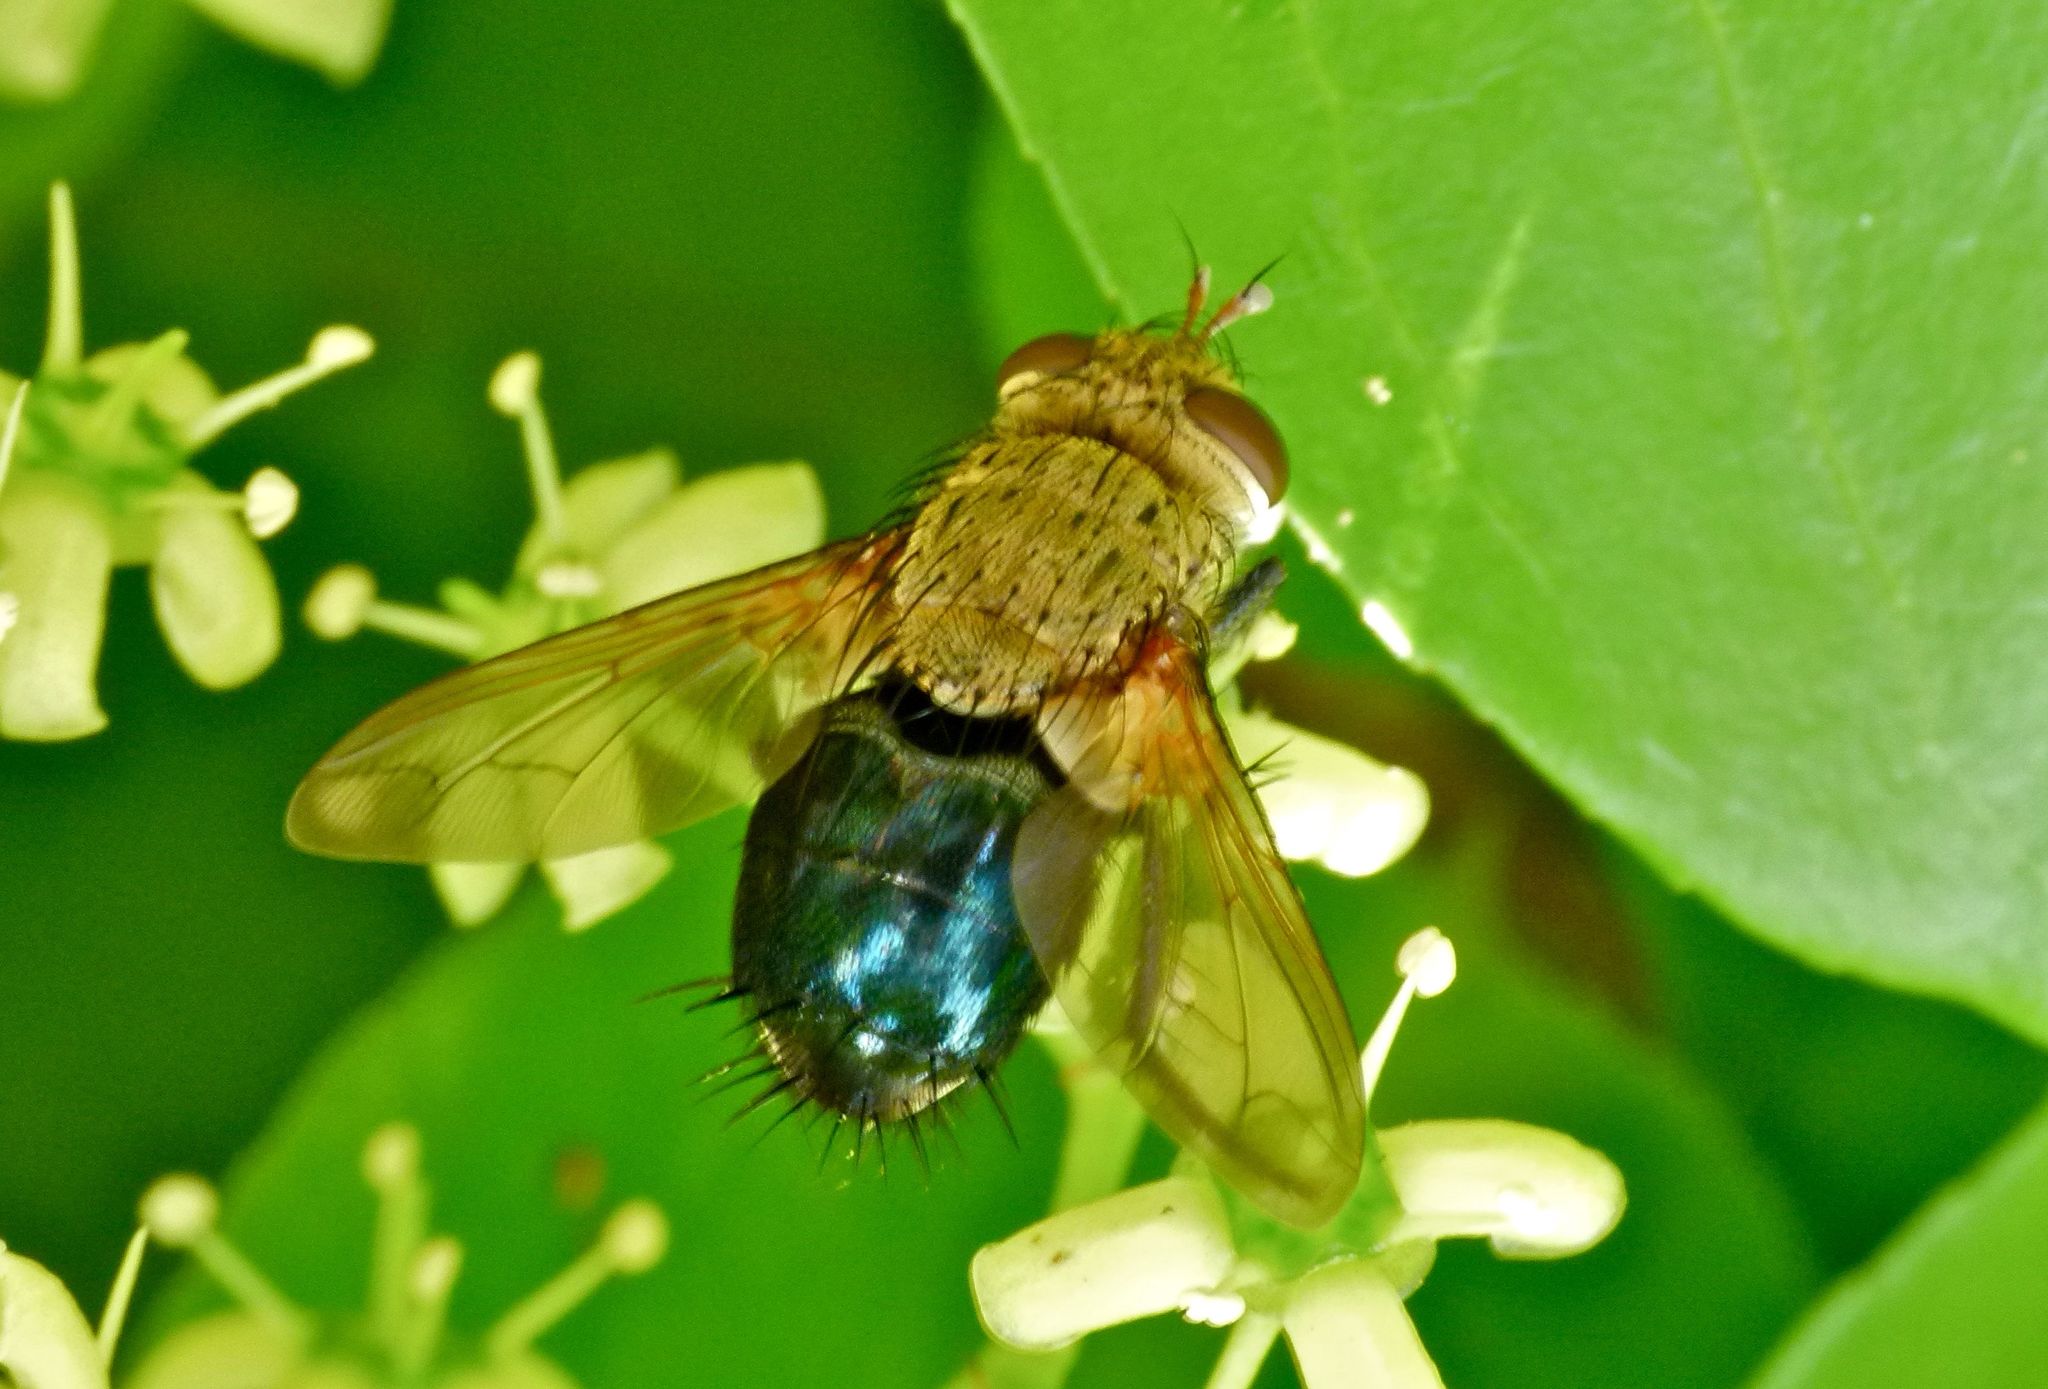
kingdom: Animalia
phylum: Arthropoda
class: Insecta
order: Diptera
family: Tachinidae
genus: Archytas
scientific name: Archytas apicifer
